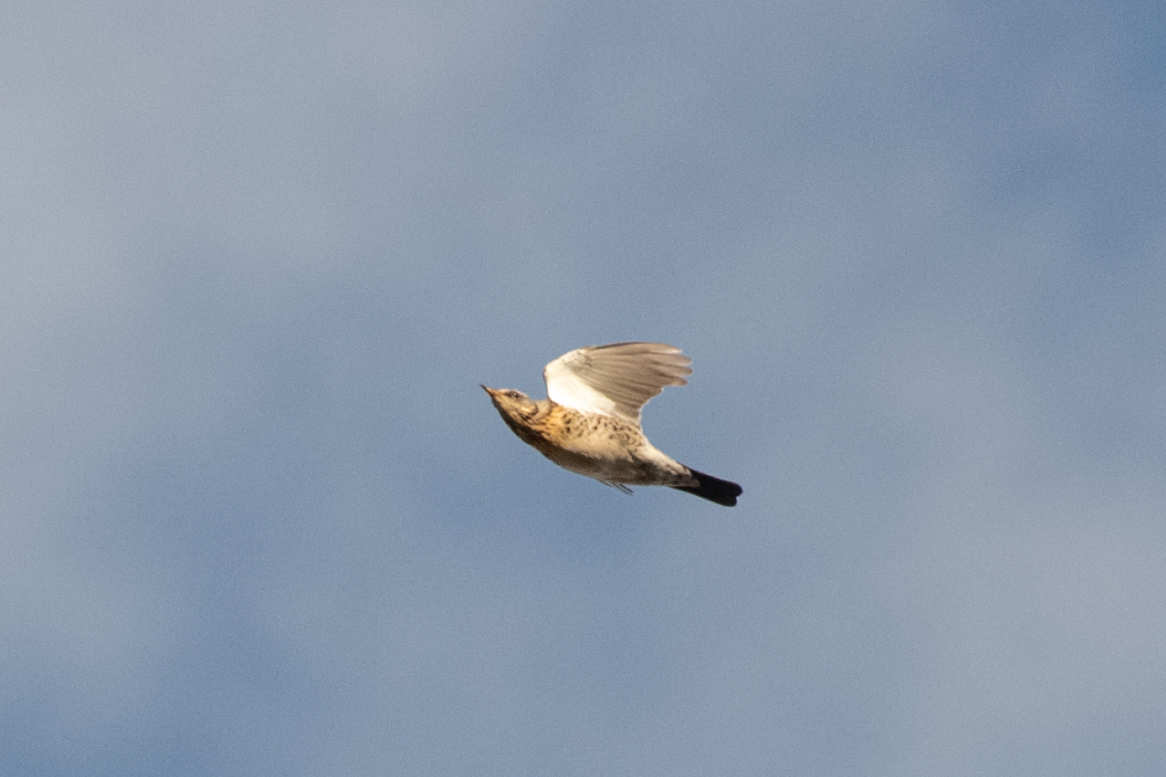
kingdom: Animalia
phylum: Chordata
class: Aves
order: Passeriformes
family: Turdidae
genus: Turdus
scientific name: Turdus pilaris
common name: Fieldfare
